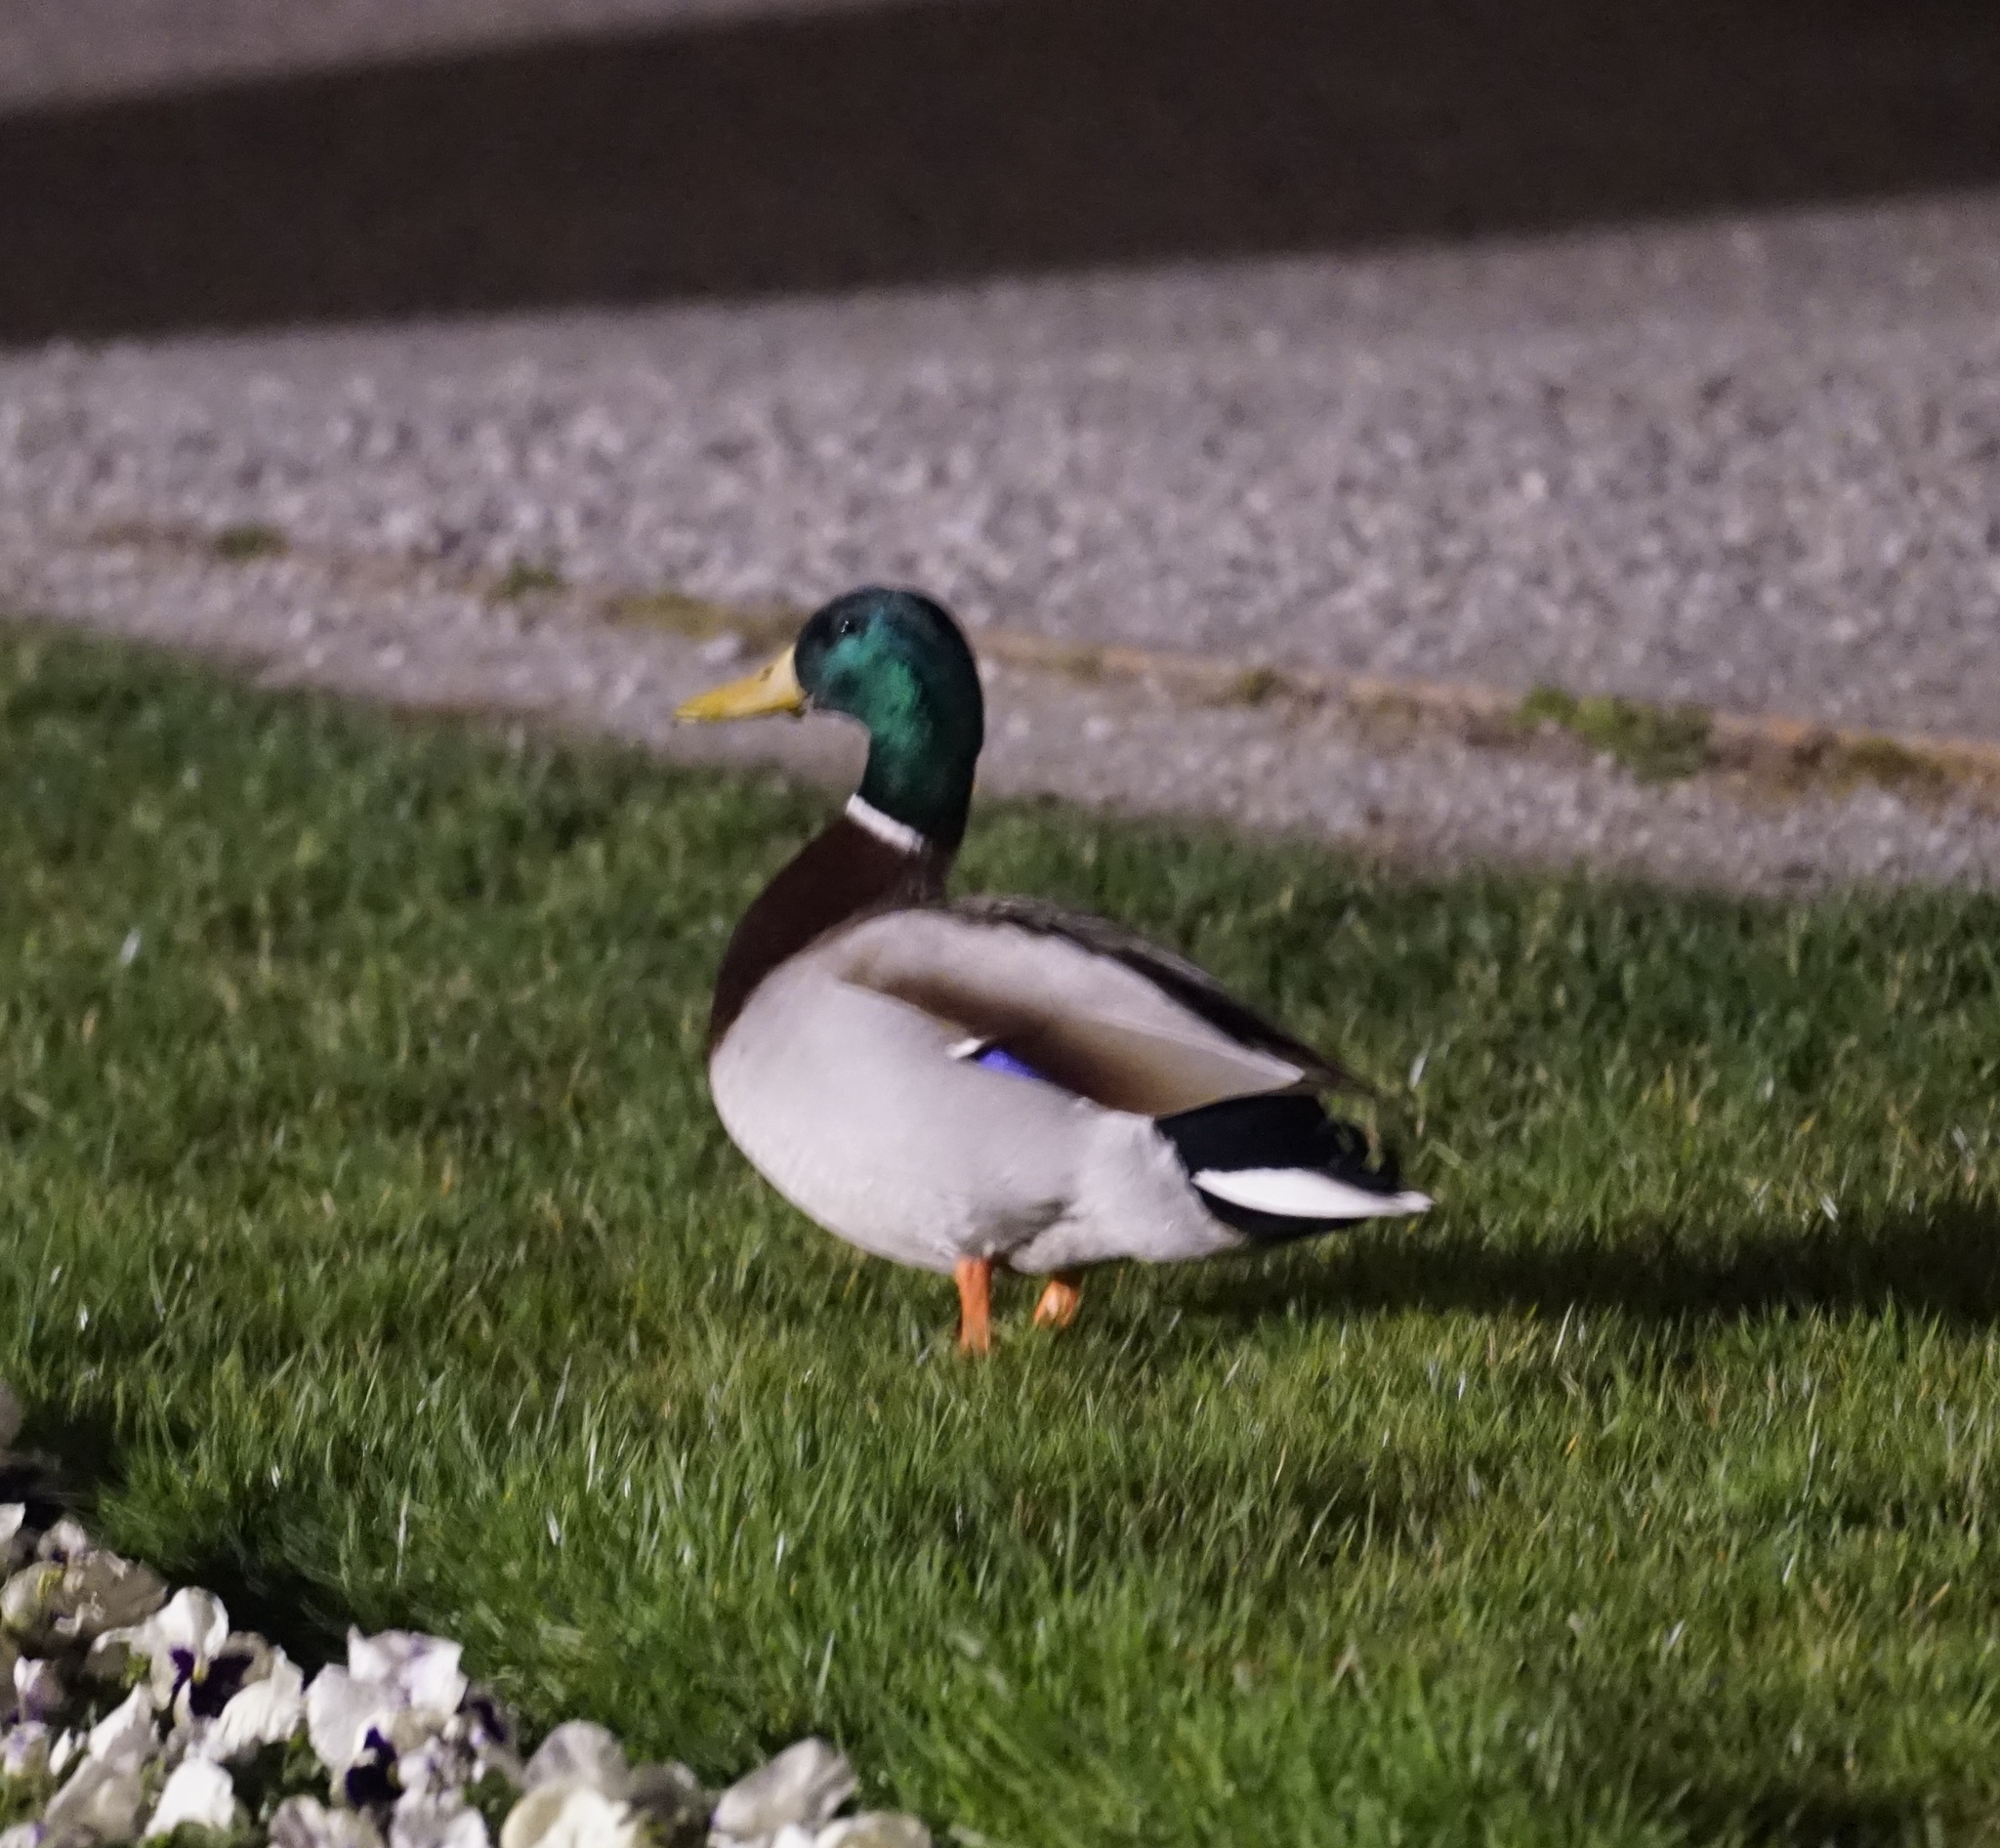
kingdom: Animalia
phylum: Chordata
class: Aves
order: Anseriformes
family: Anatidae
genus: Anas
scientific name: Anas platyrhynchos
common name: Mallard
